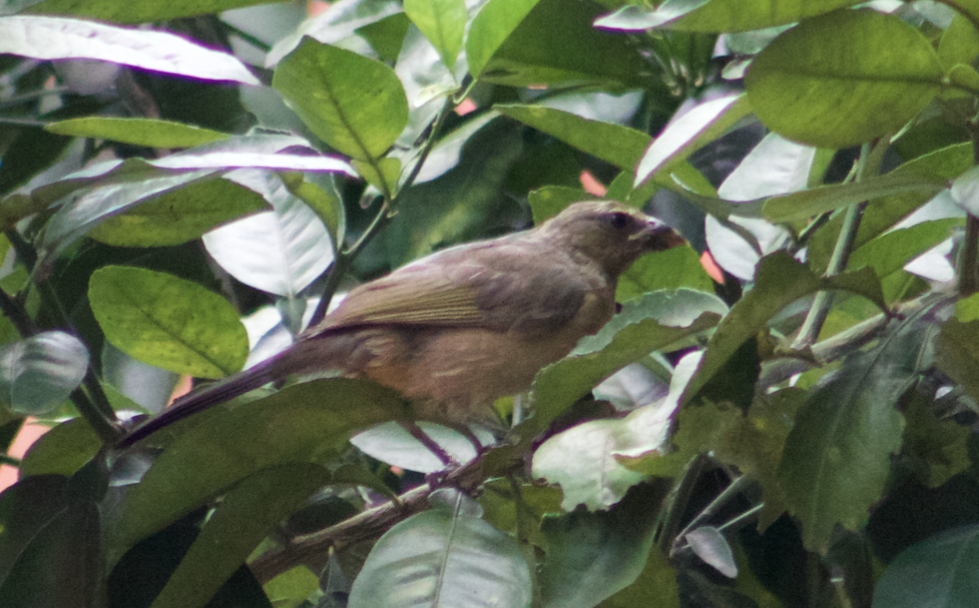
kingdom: Animalia
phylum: Chordata
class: Aves
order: Passeriformes
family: Thraupidae
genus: Saltator
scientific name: Saltator coerulescens
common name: Grayish saltator
